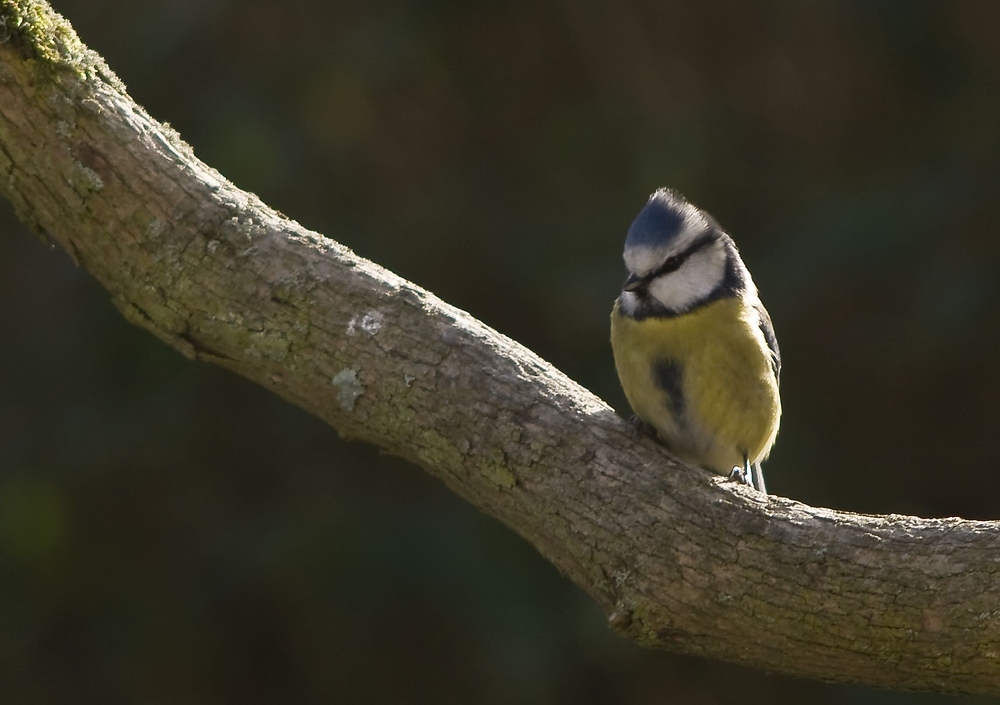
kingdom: Animalia
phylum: Chordata
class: Aves
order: Passeriformes
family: Paridae
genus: Cyanistes
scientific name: Cyanistes caeruleus
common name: Eurasian blue tit
